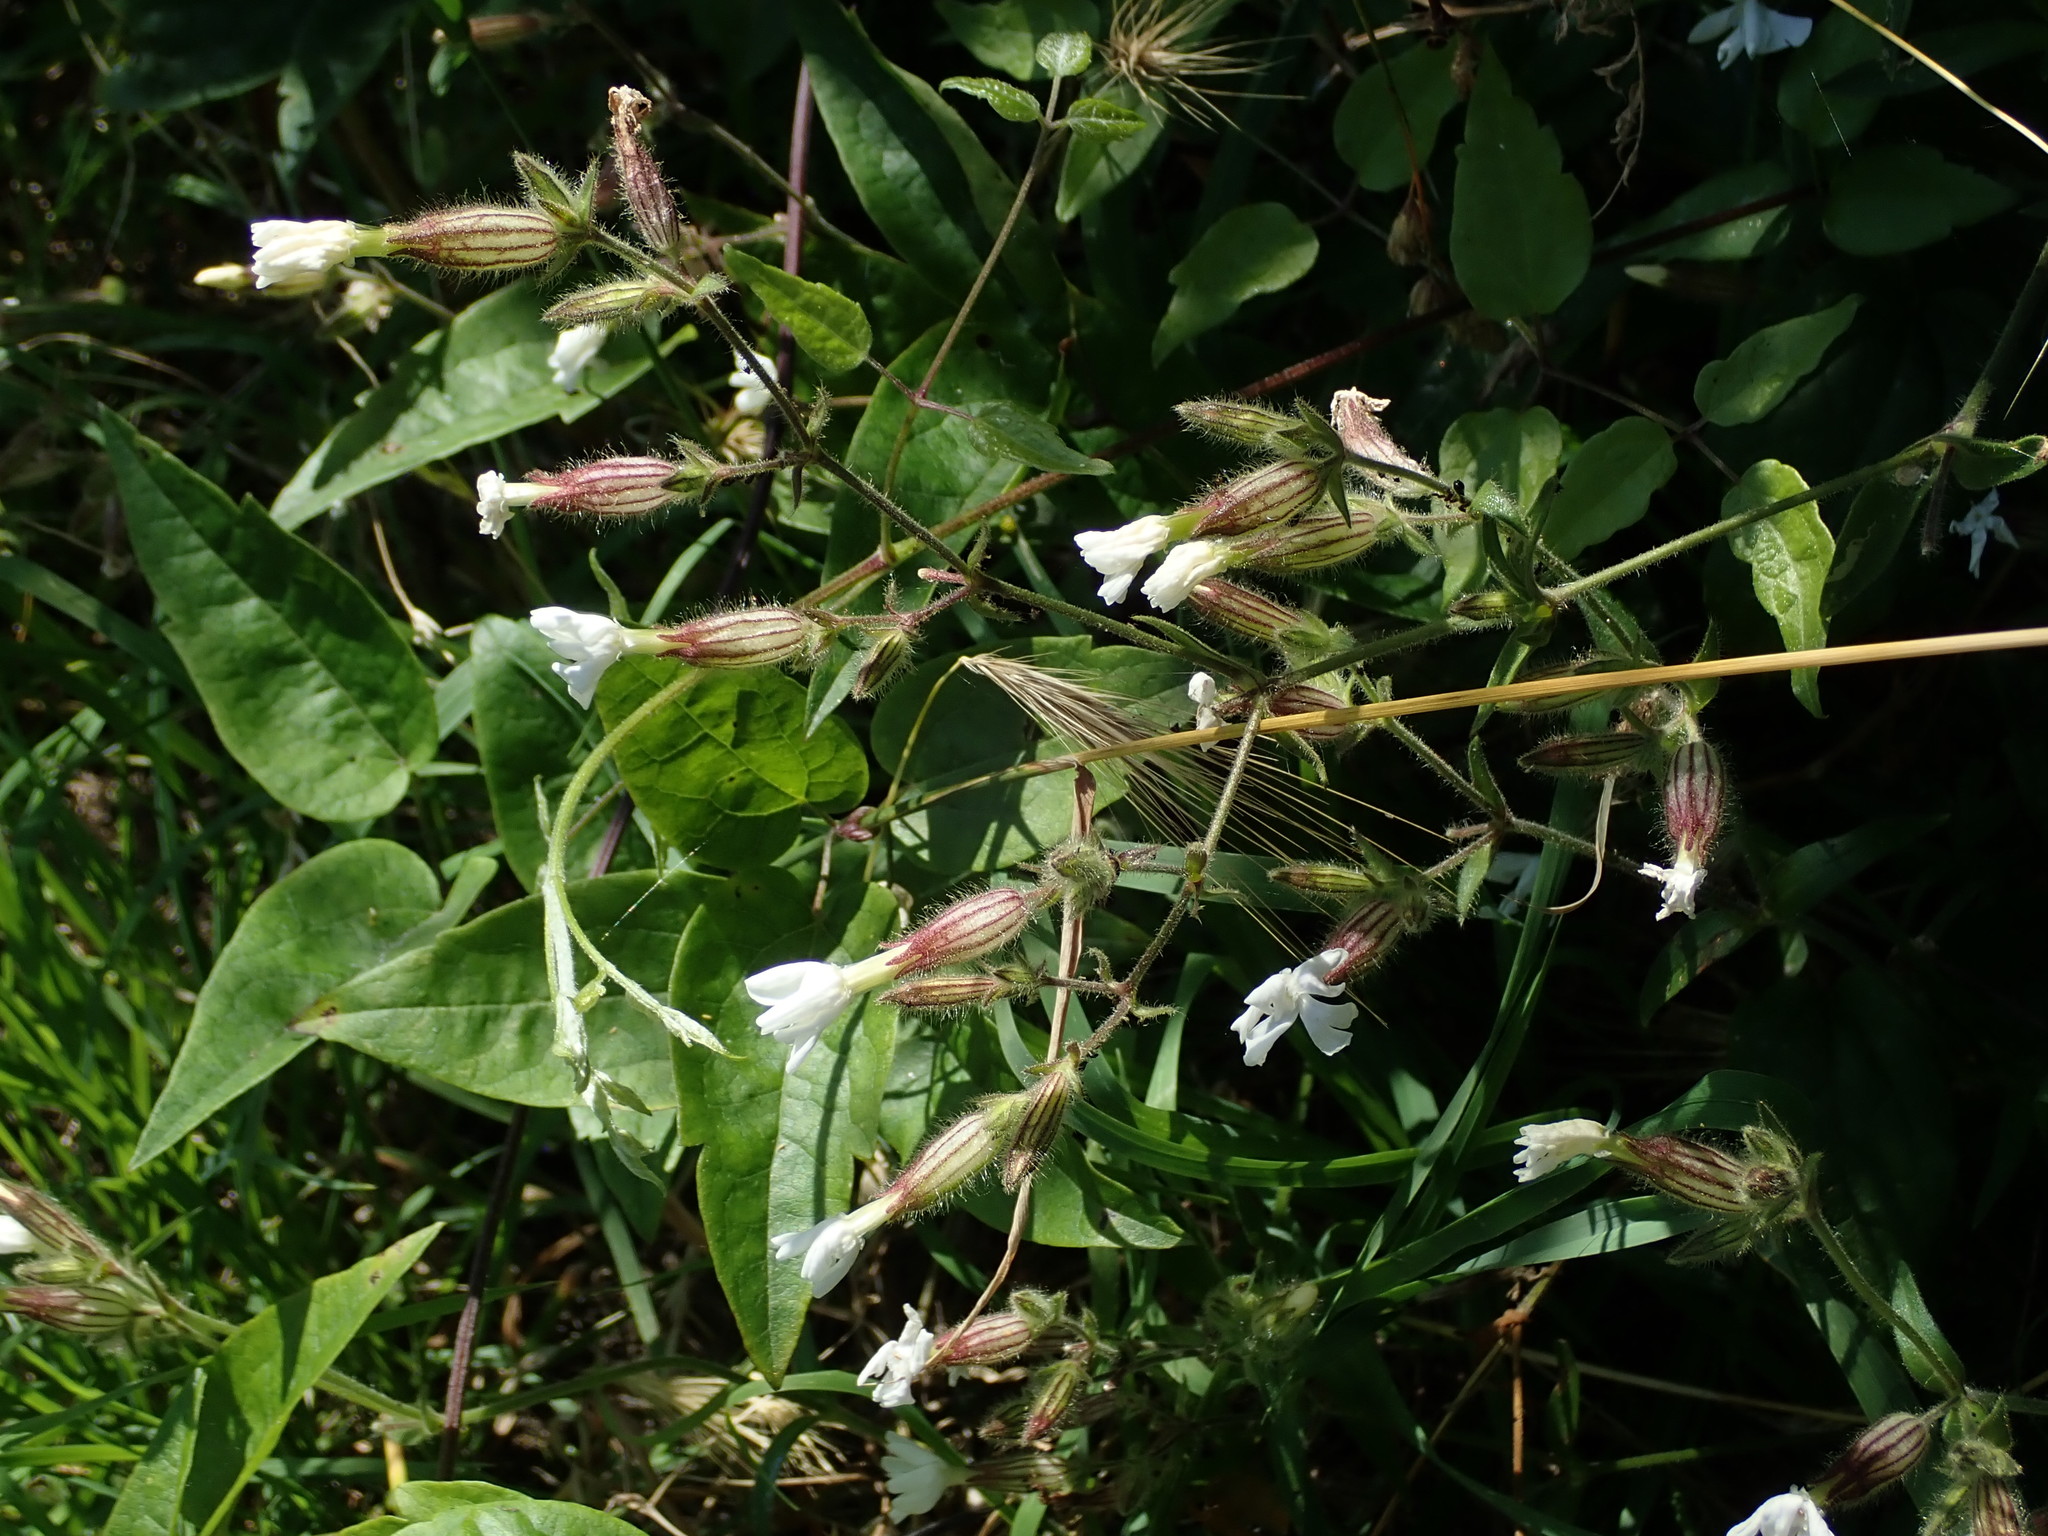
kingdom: Plantae
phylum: Tracheophyta
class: Magnoliopsida
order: Caryophyllales
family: Caryophyllaceae
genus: Silene
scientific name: Silene latifolia
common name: White campion
